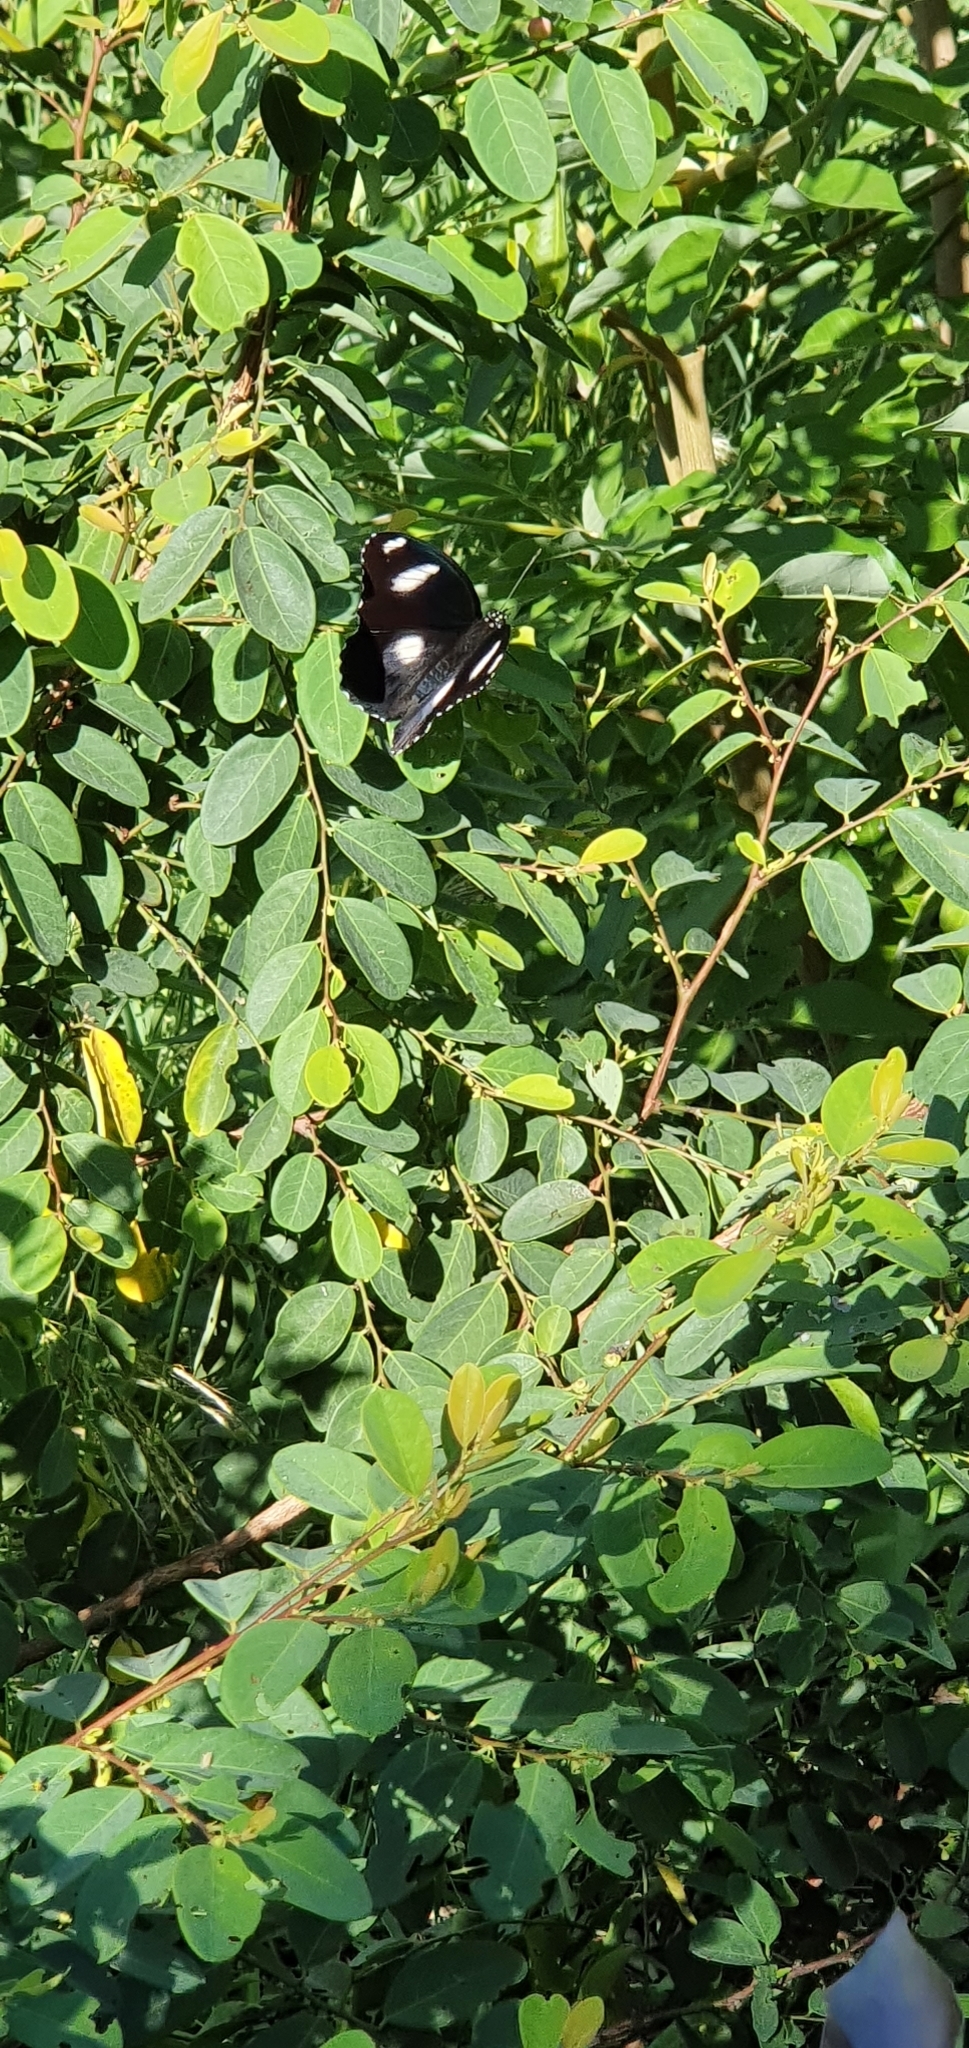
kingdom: Animalia
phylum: Arthropoda
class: Insecta
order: Lepidoptera
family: Nymphalidae
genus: Hypolimnas
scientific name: Hypolimnas bolina
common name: Great eggfly
